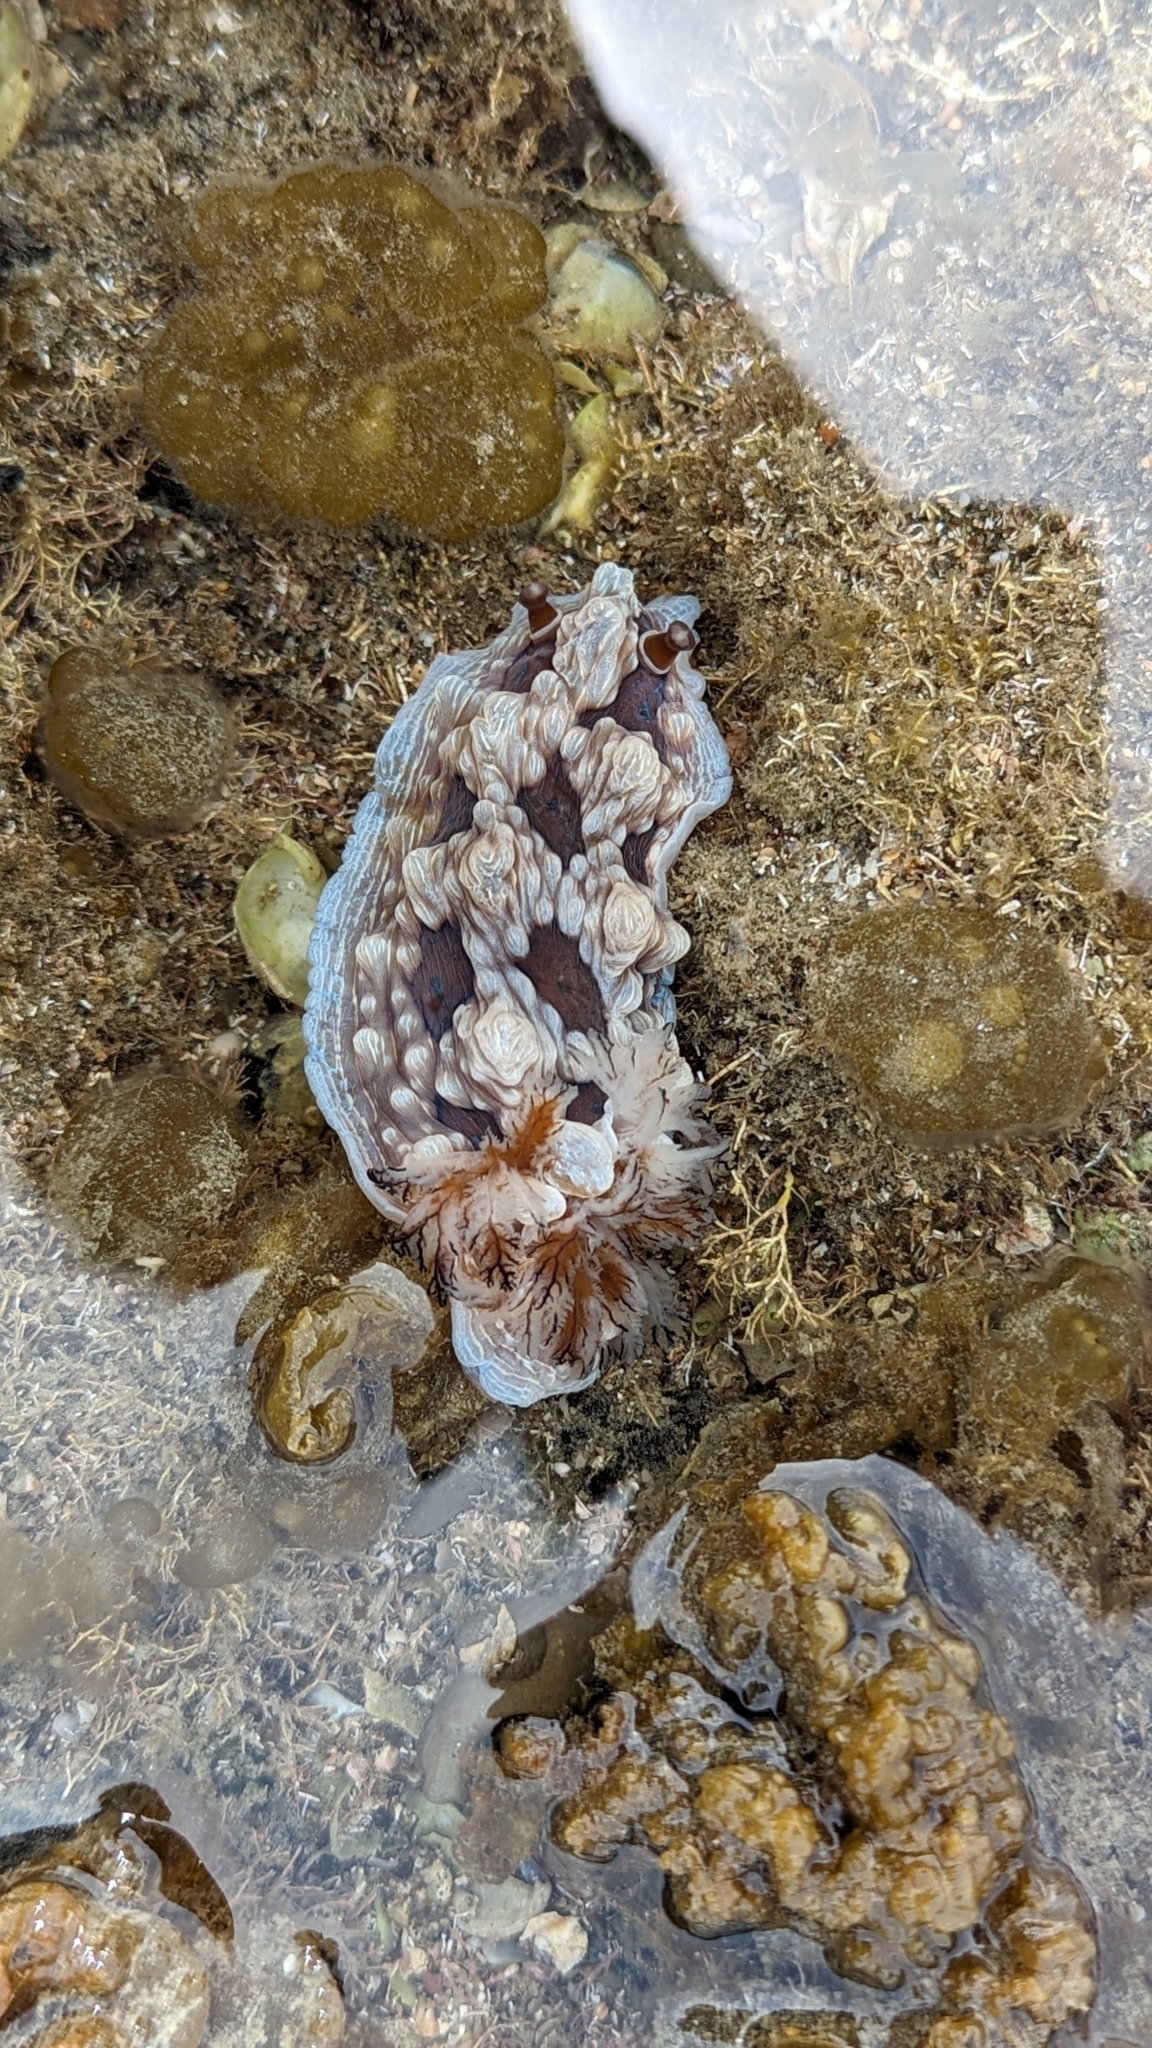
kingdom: Animalia
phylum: Mollusca
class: Gastropoda
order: Nudibranchia
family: Dendrodorididae
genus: Dendrodoris
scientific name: Dendrodoris krusensternii
